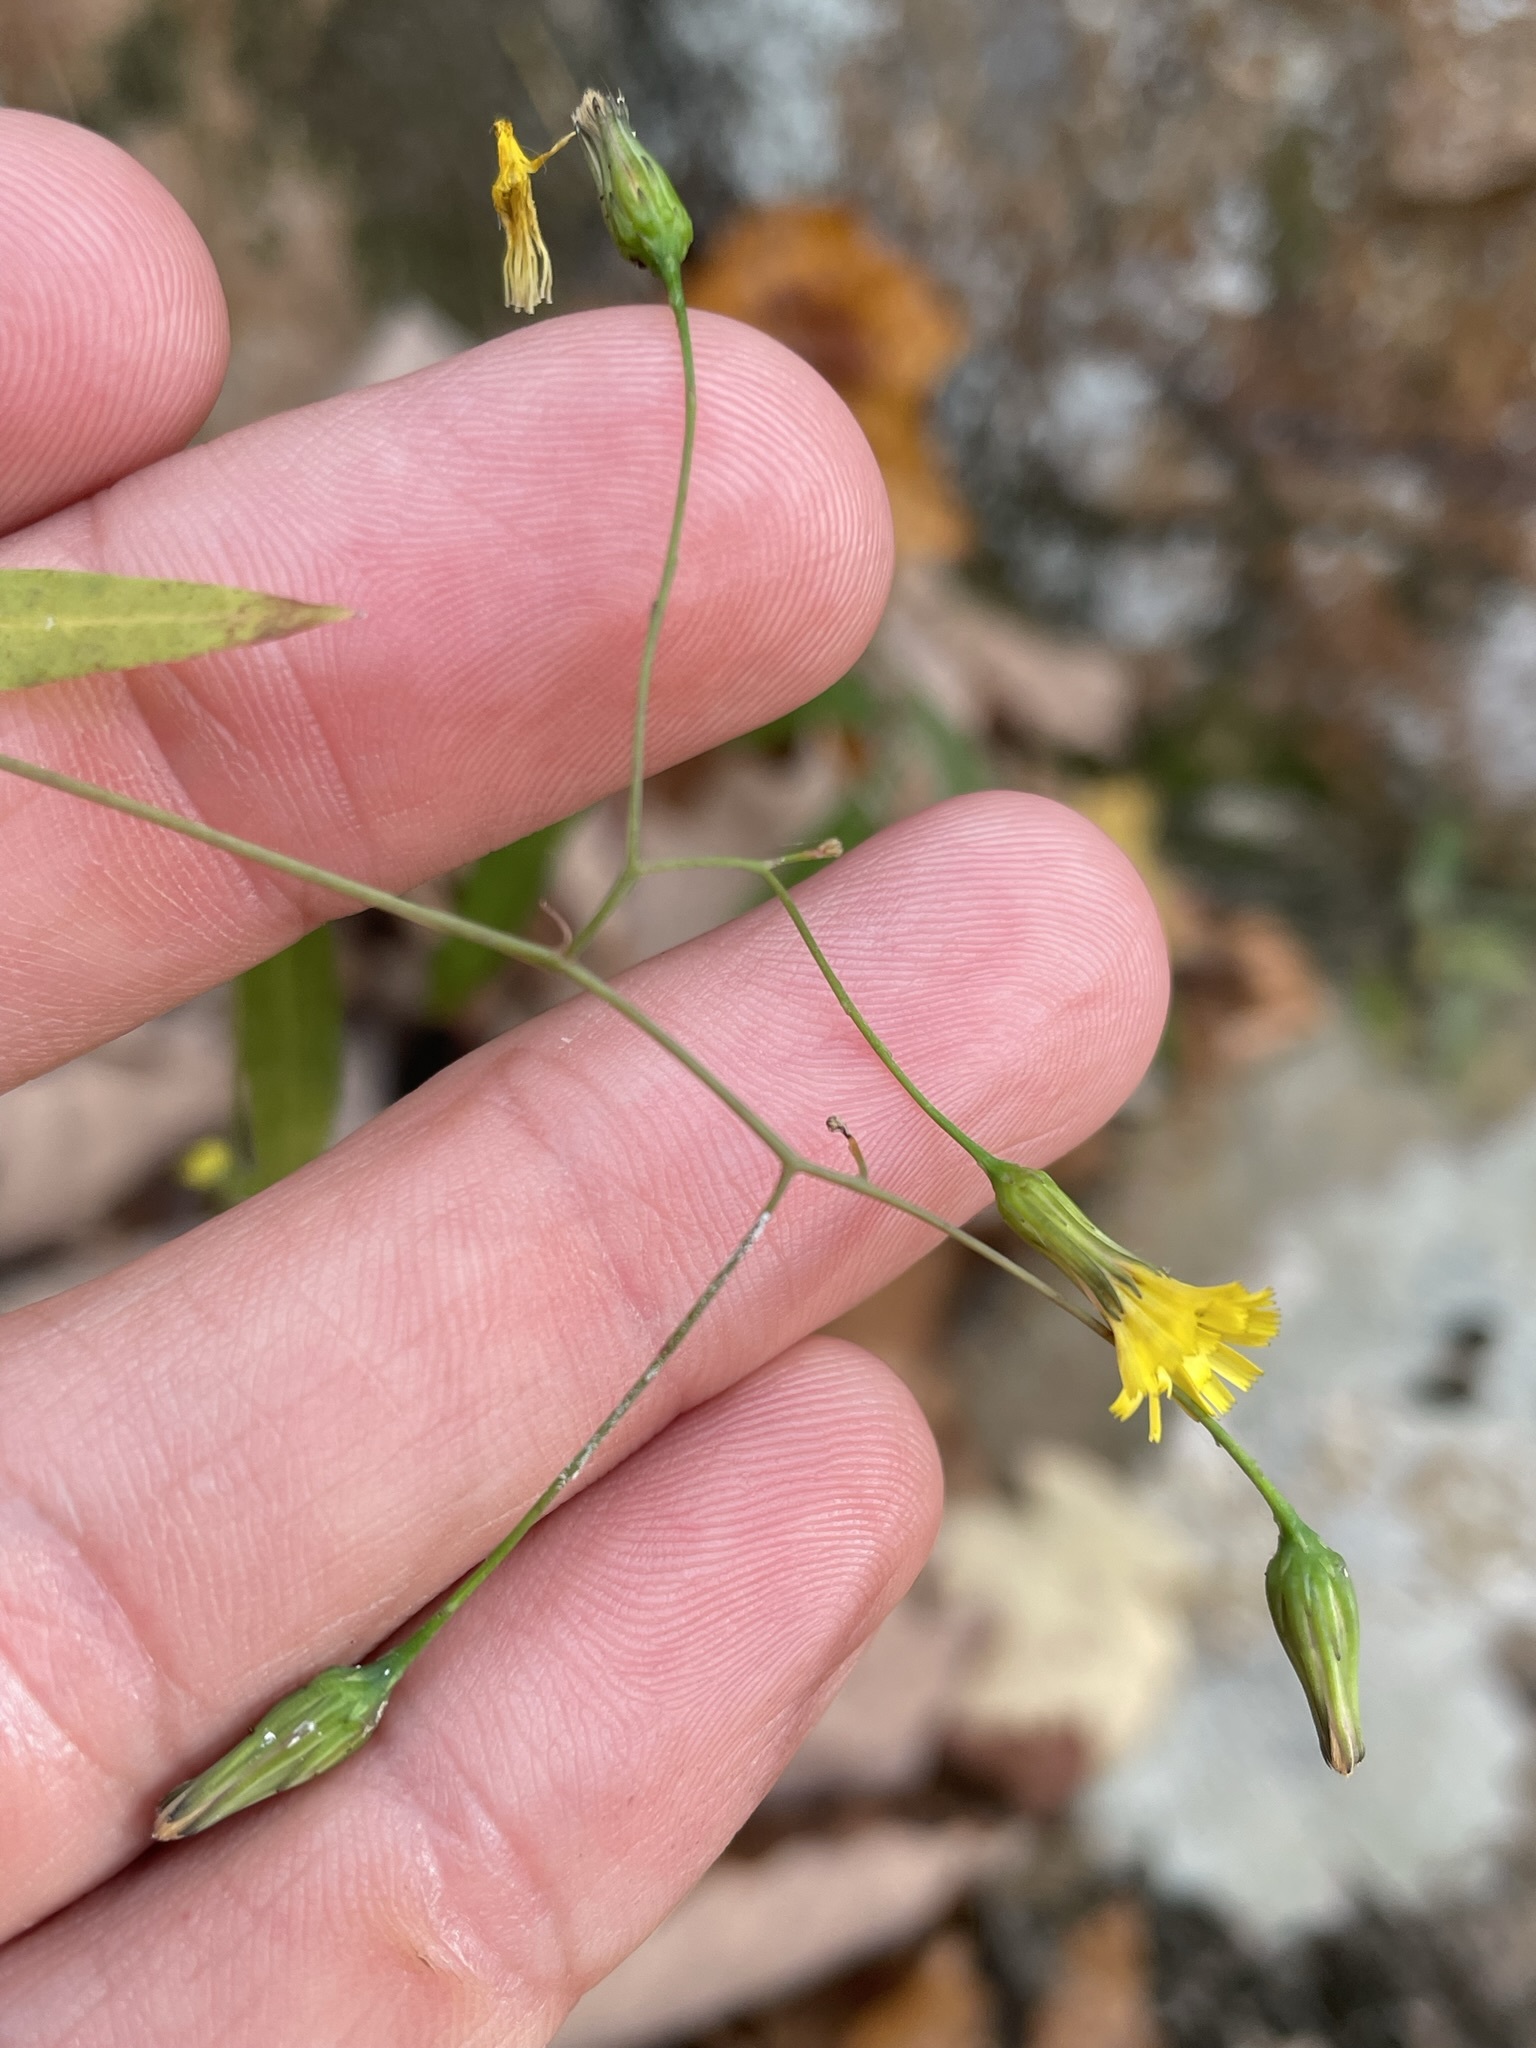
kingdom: Plantae
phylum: Tracheophyta
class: Magnoliopsida
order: Asterales
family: Asteraceae
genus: Hieracium
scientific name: Hieracium paniculatum
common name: Allegheny hawkweed
